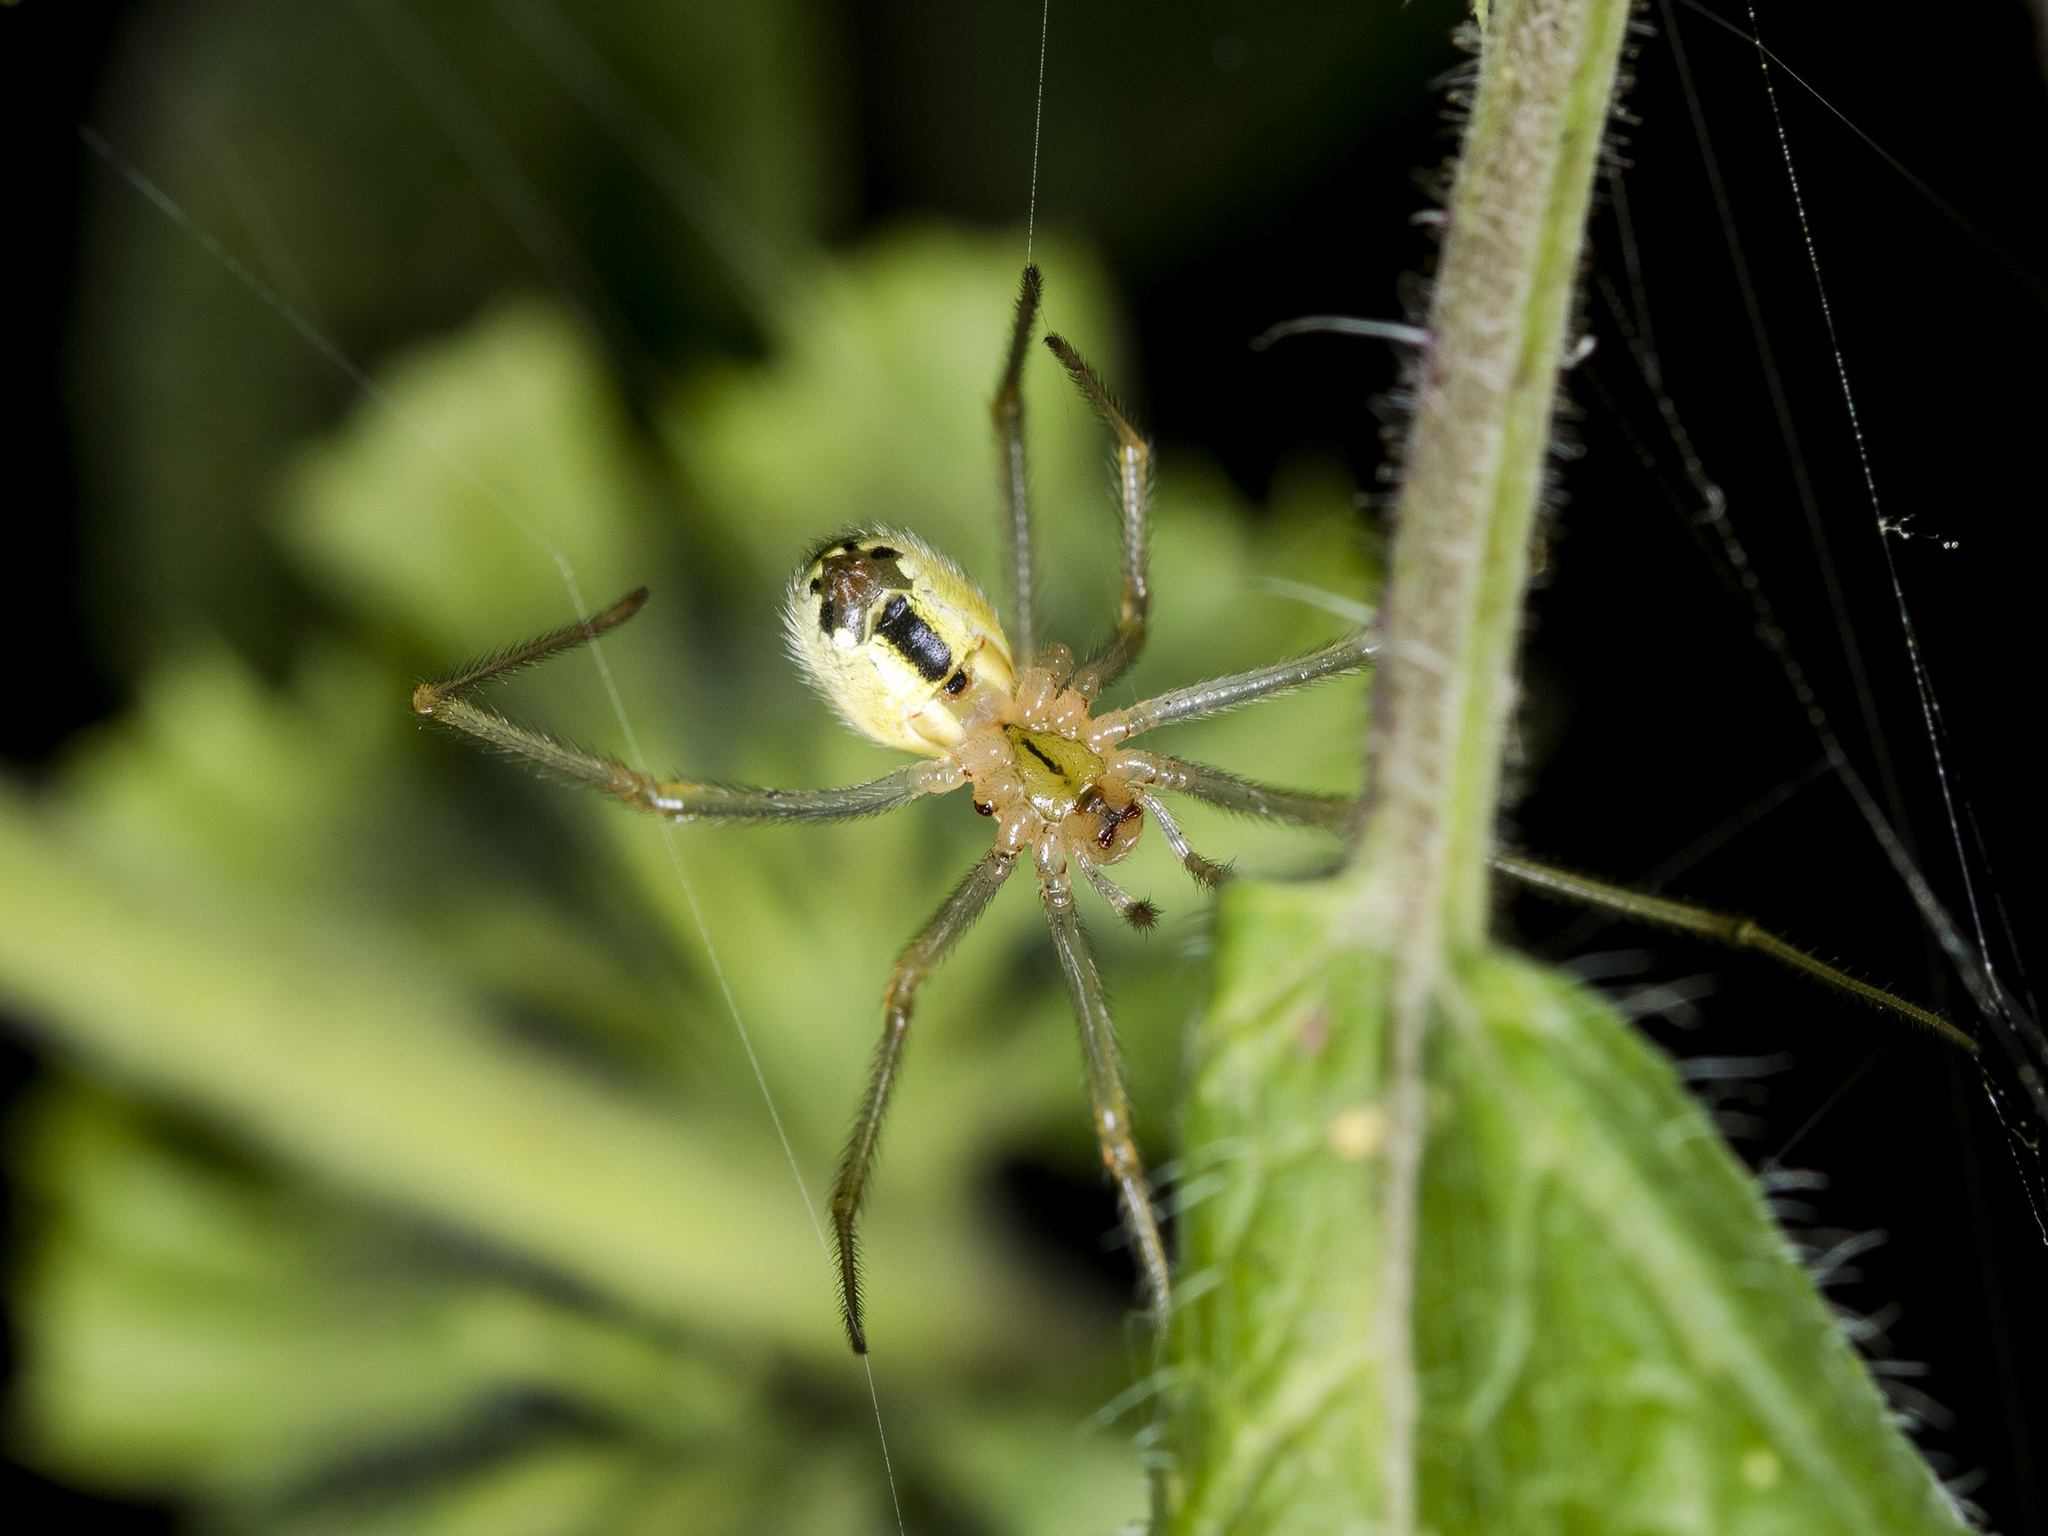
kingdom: Animalia
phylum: Arthropoda
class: Arachnida
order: Araneae
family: Theridiidae
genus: Enoplognatha
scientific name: Enoplognatha latimana
